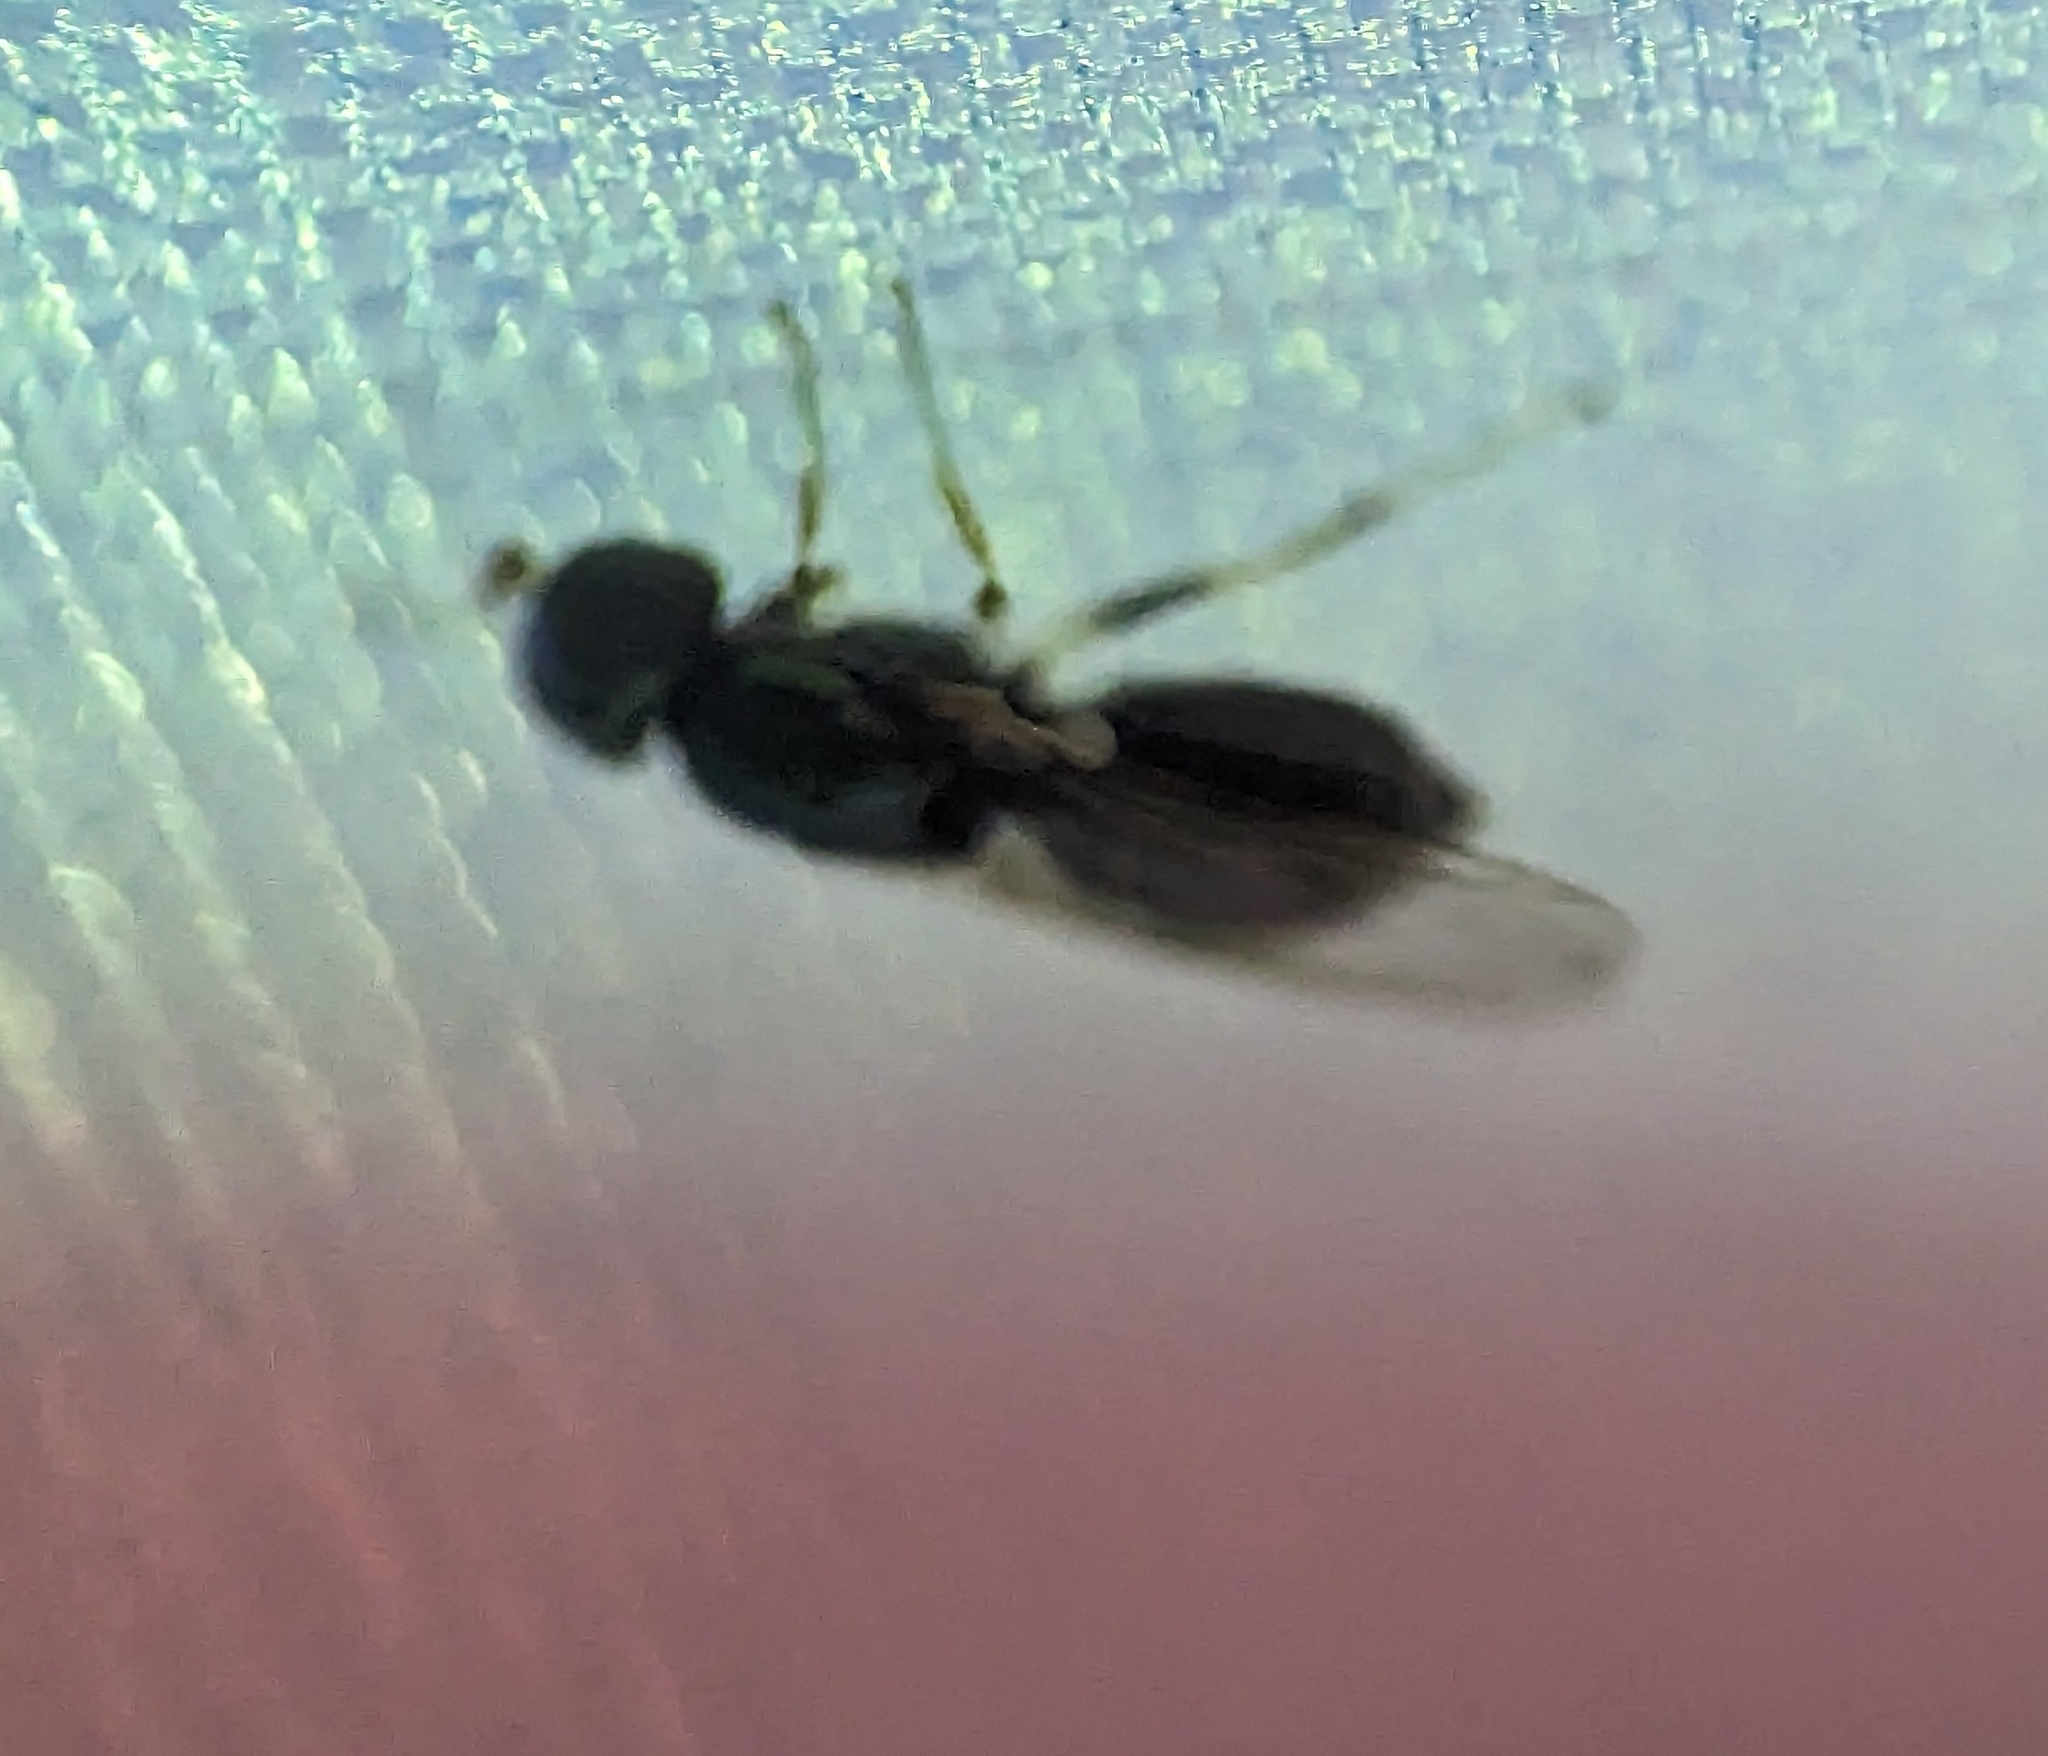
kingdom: Animalia
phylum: Arthropoda
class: Insecta
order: Diptera
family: Stratiomyidae
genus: Microchrysa
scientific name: Microchrysa flaviventris
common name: Soldier fly
